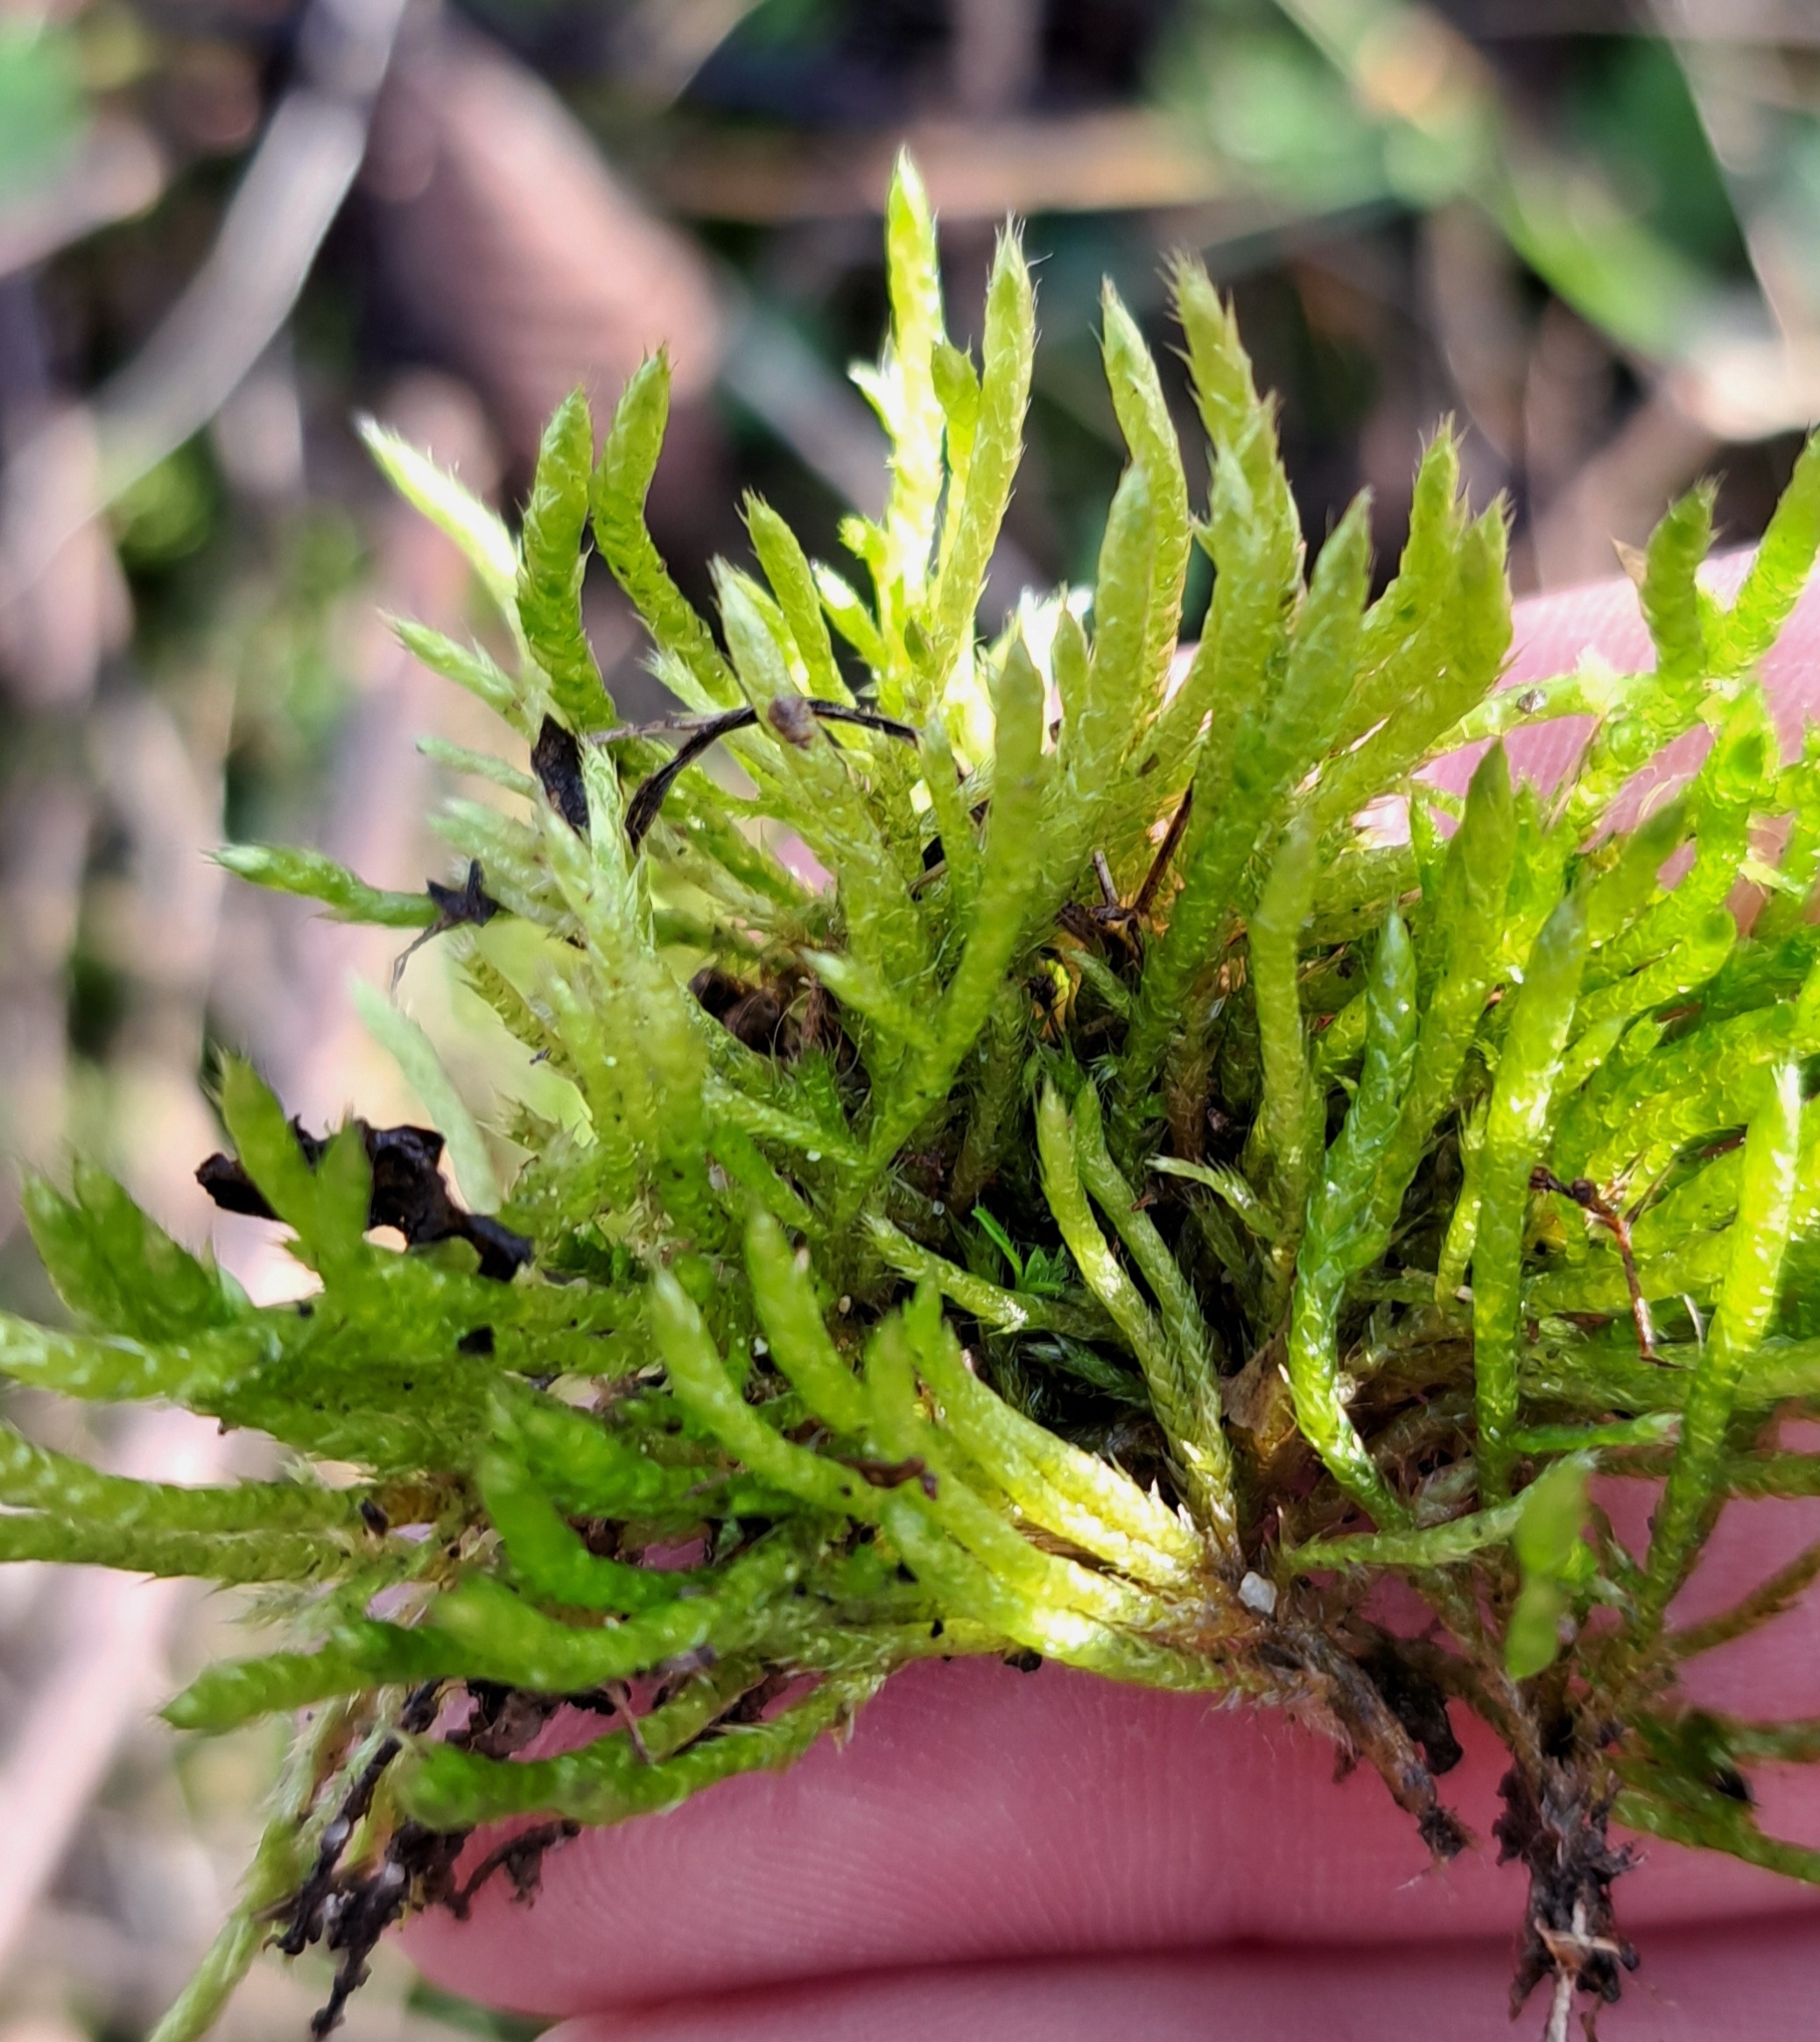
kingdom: Plantae
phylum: Bryophyta
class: Bryopsida
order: Hypnales
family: Brachytheciaceae
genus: Brachythecium
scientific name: Brachythecium albicans
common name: Whitish ragged moss
